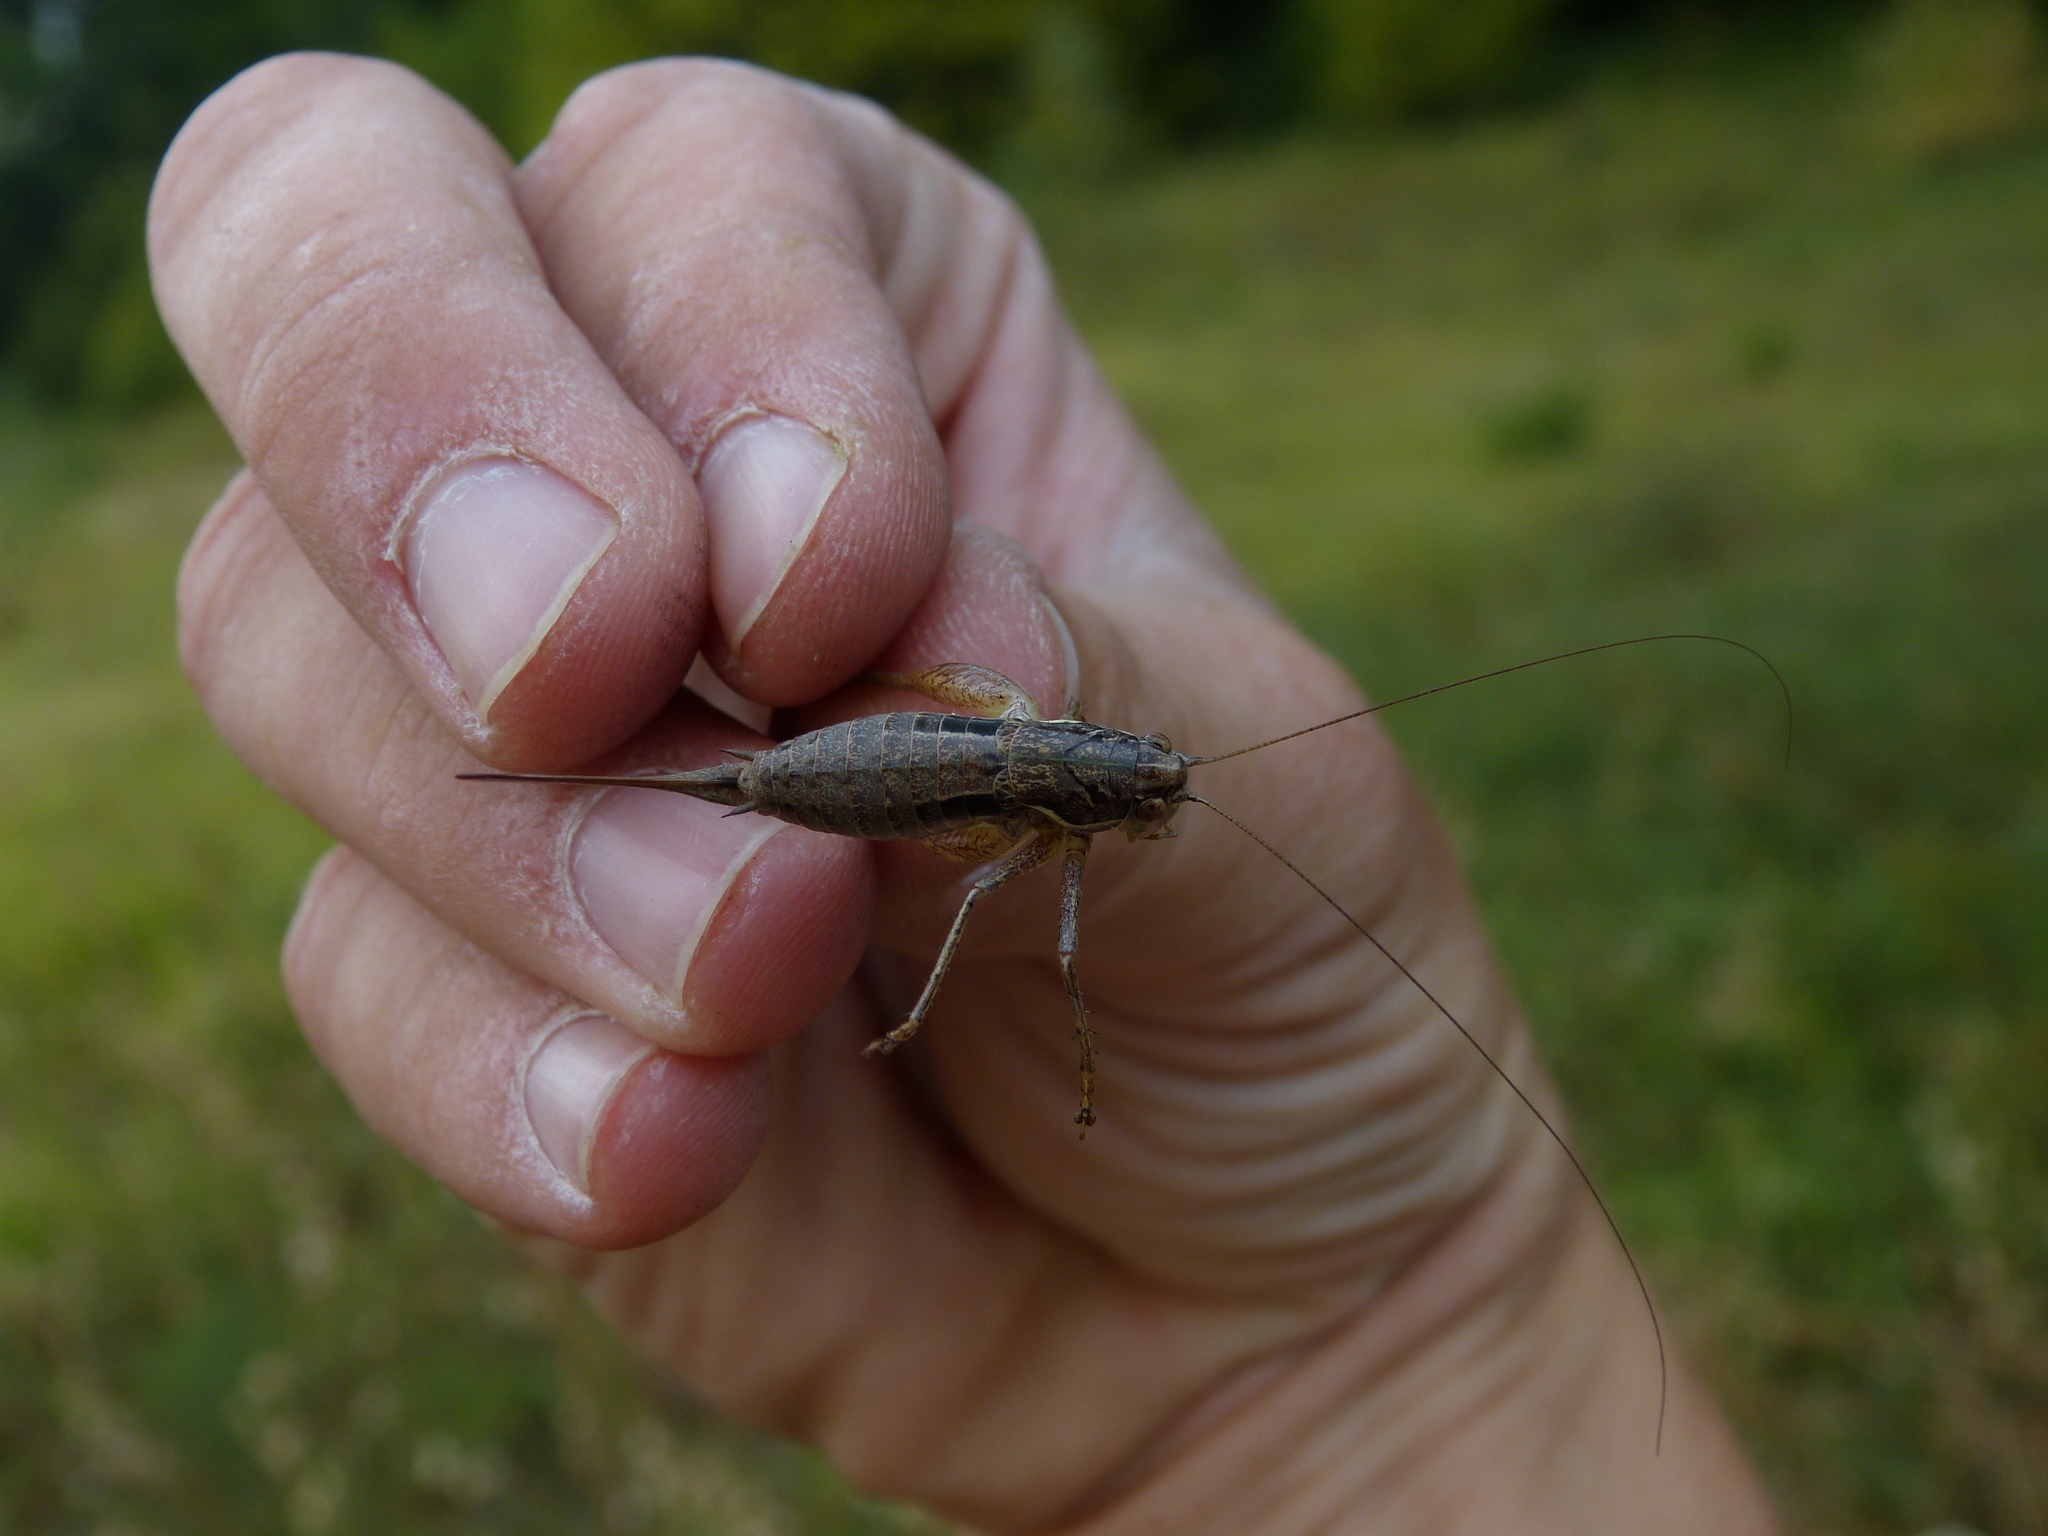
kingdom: Animalia
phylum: Arthropoda
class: Insecta
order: Orthoptera
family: Tettigoniidae
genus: Pachytrachis
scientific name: Pachytrachis gracilis
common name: Graceful bush-cricket
